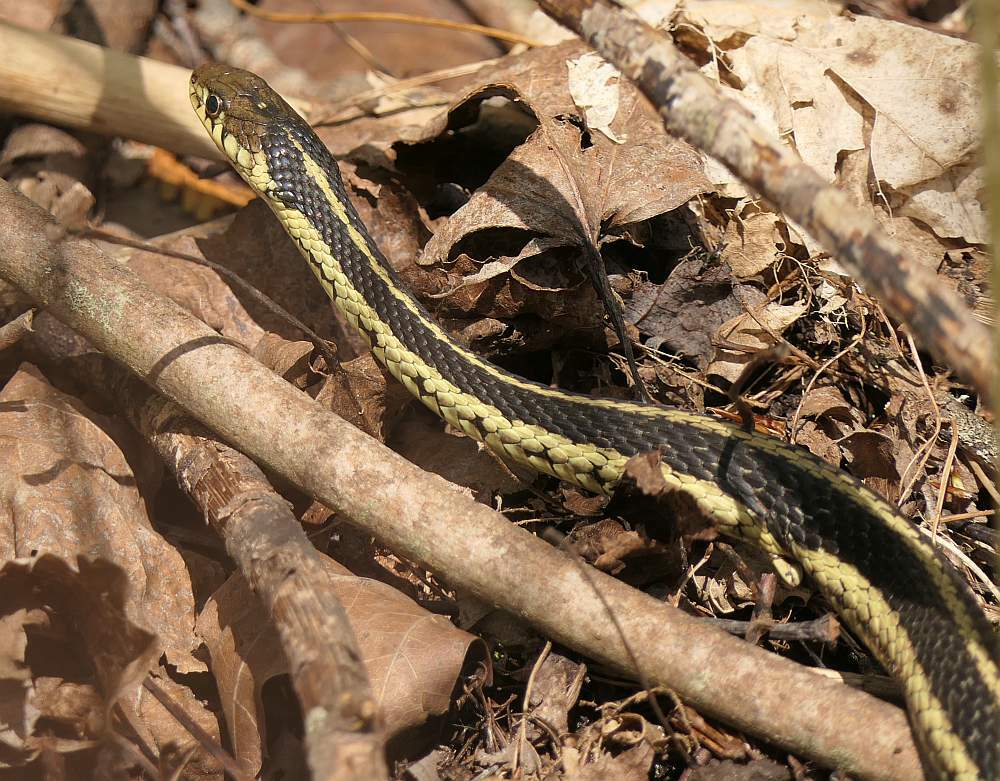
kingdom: Animalia
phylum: Chordata
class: Squamata
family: Colubridae
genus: Thamnophis
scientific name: Thamnophis sirtalis
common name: Common garter snake
